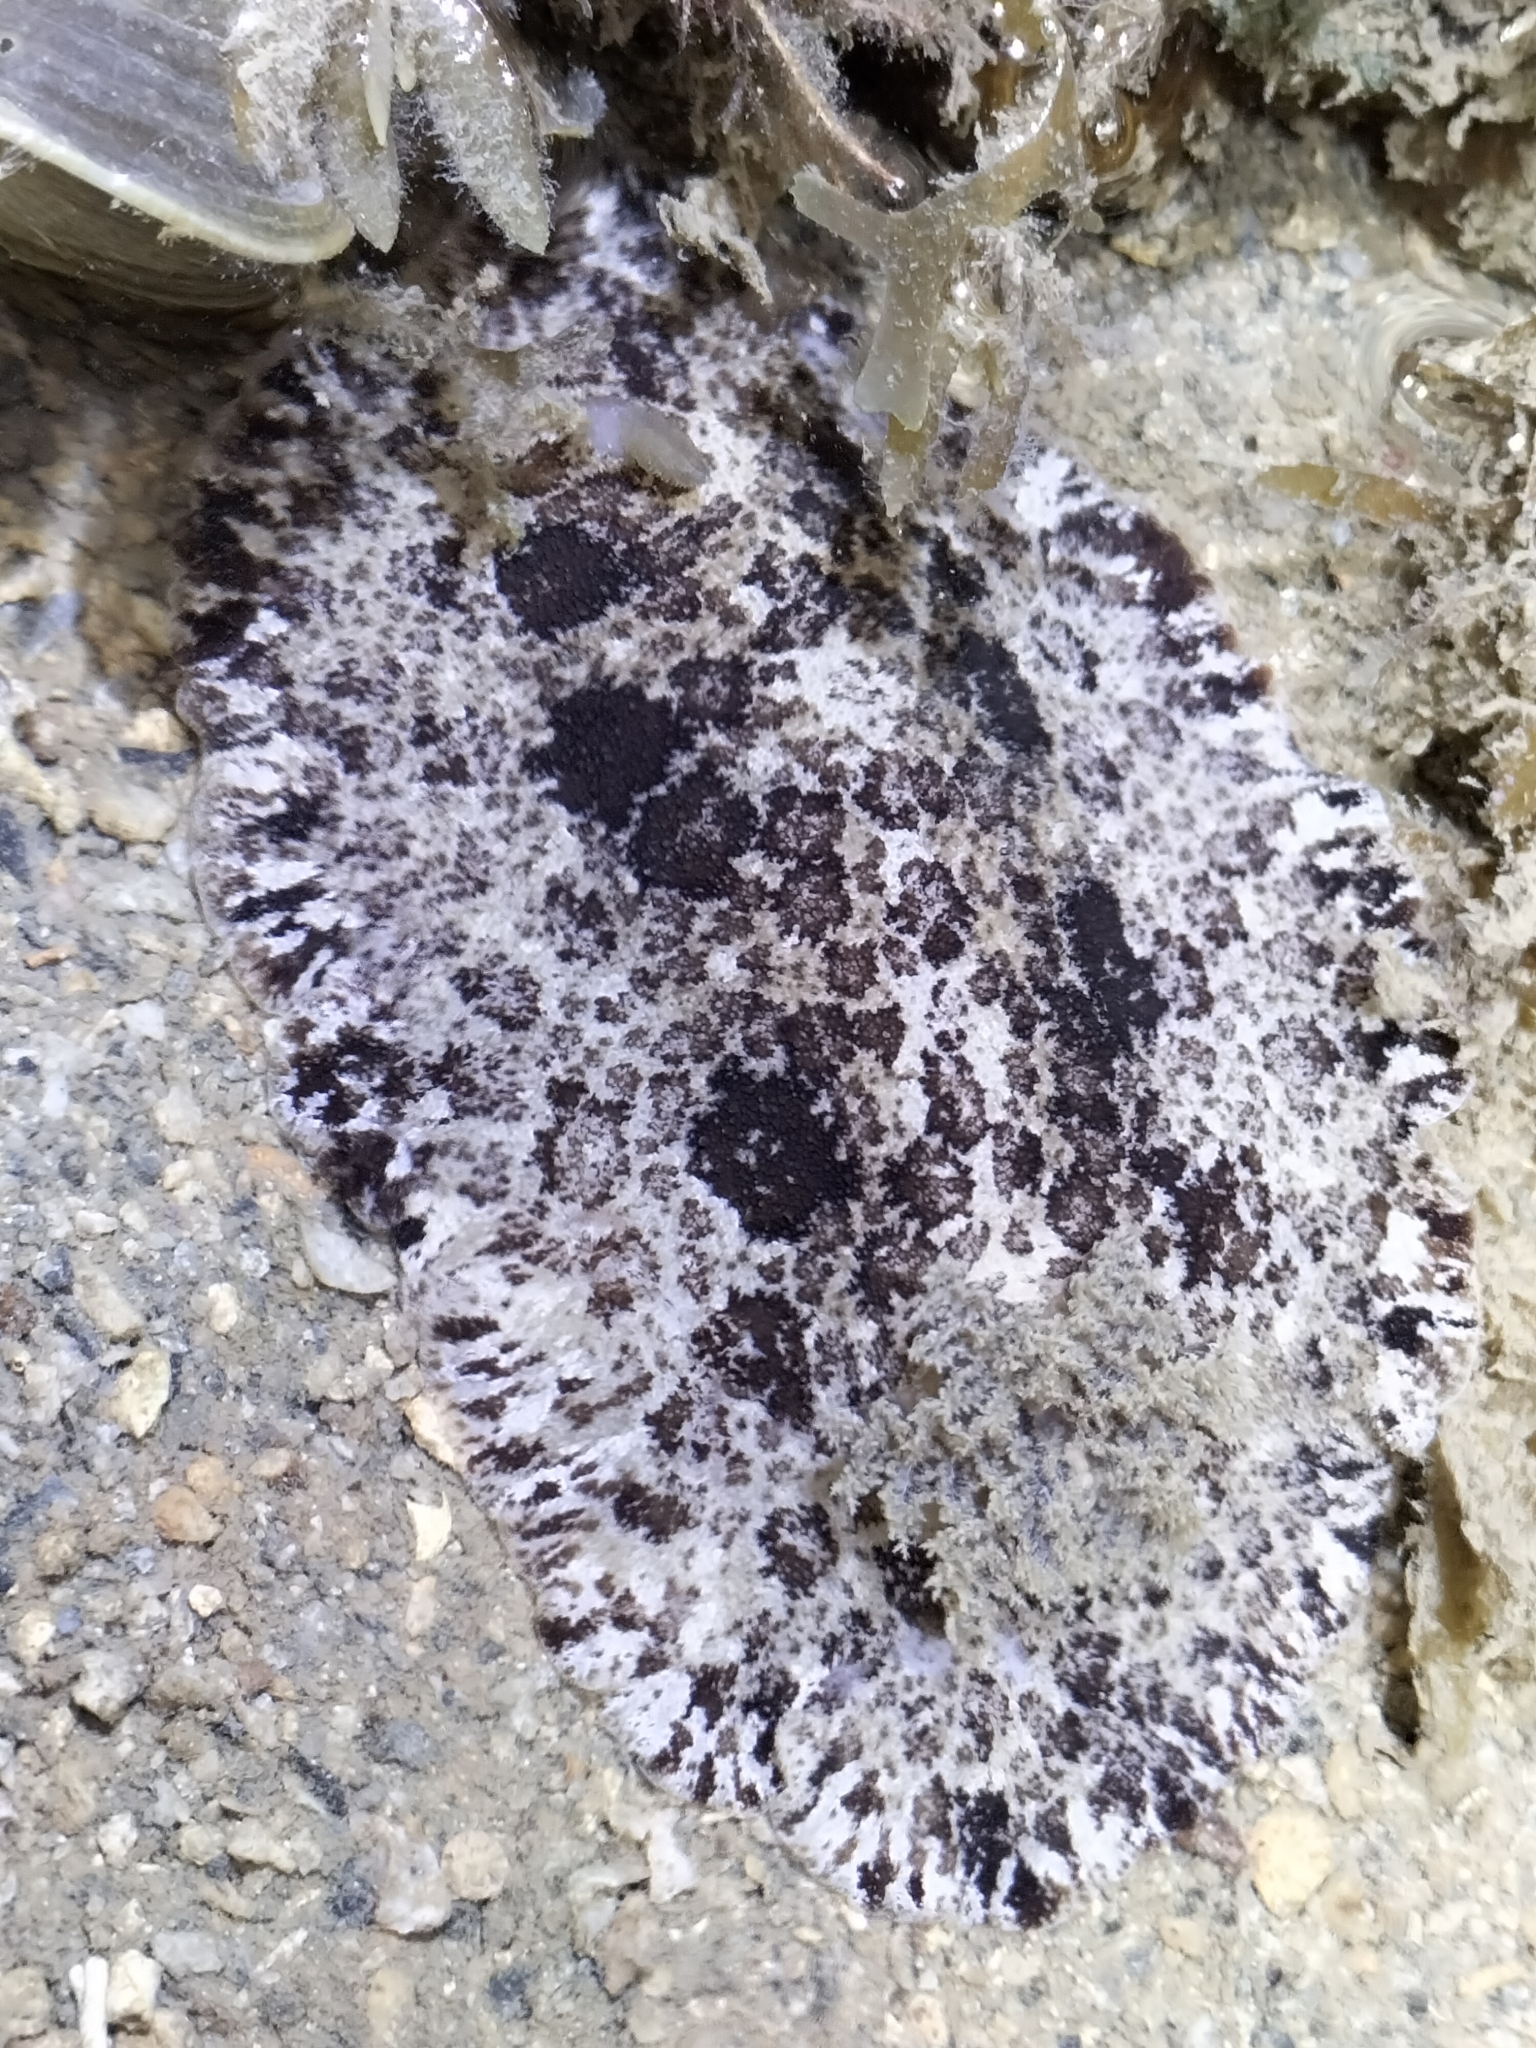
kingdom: Animalia
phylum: Mollusca
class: Gastropoda
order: Nudibranchia
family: Discodorididae
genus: Sebadoris
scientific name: Sebadoris fragilis
